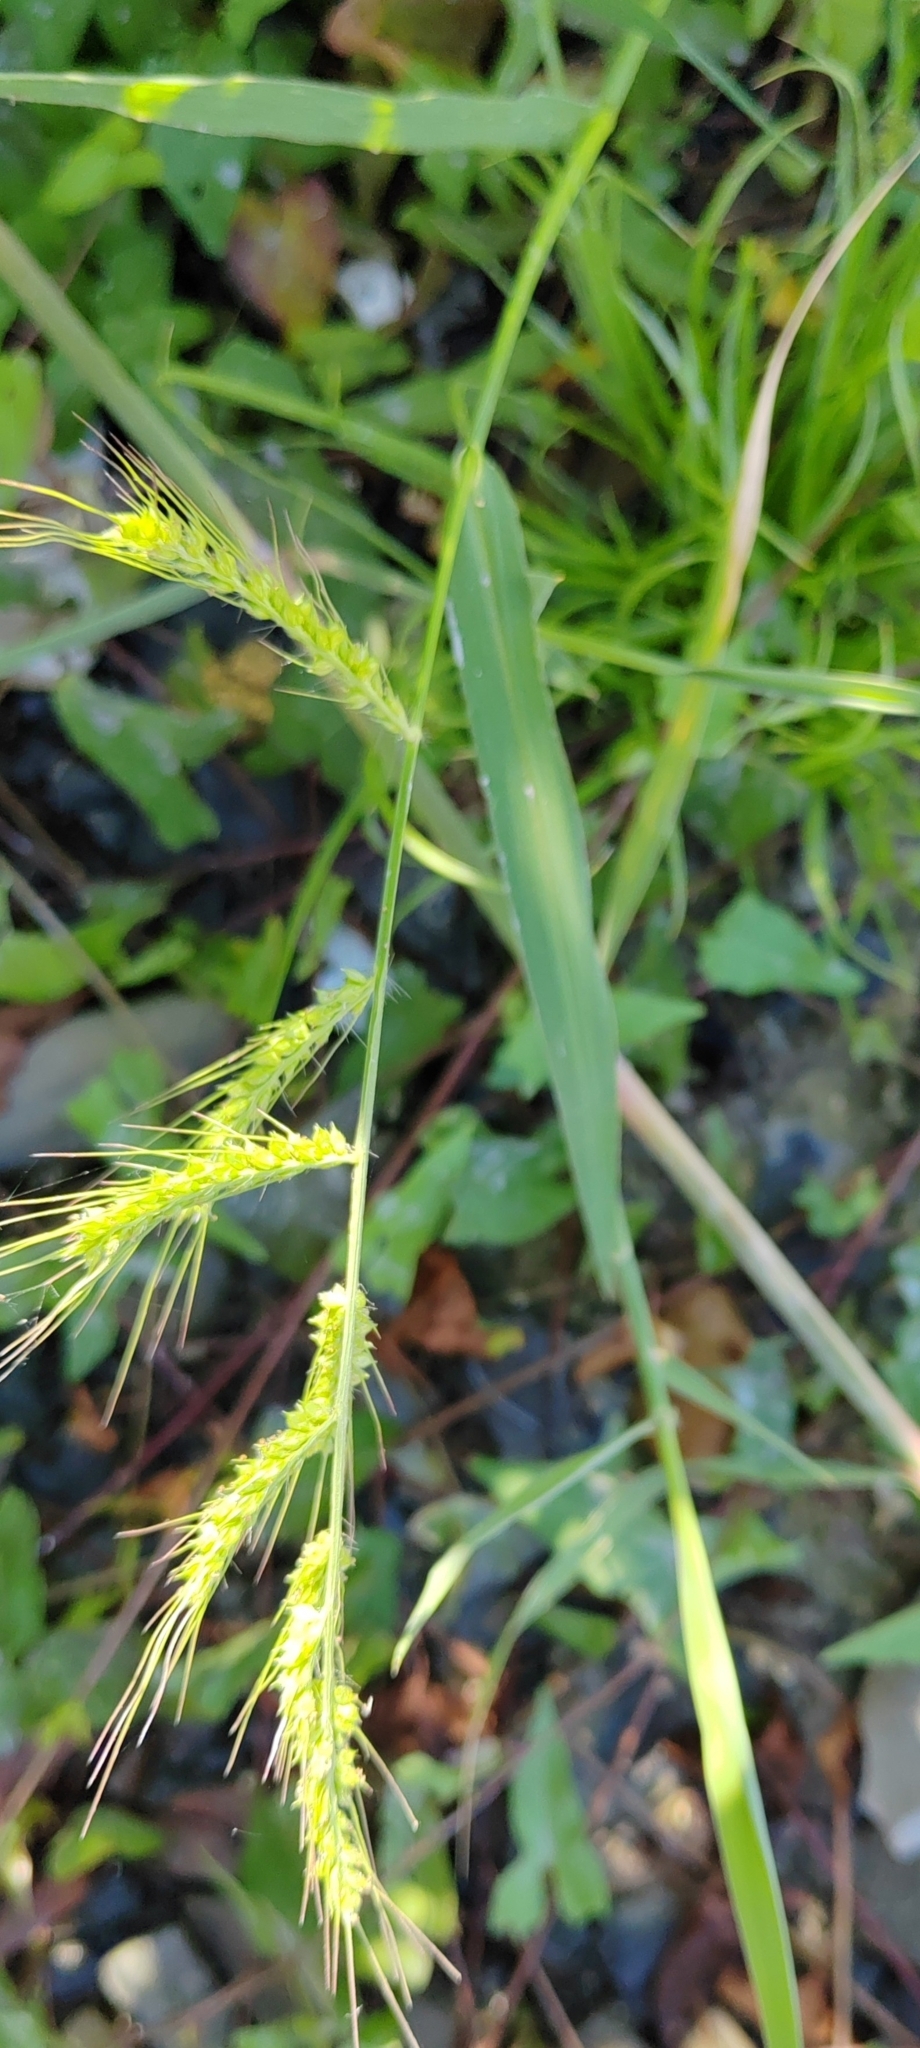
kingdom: Plantae
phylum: Tracheophyta
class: Liliopsida
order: Poales
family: Poaceae
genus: Echinochloa
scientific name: Echinochloa crus-galli
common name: Cockspur
